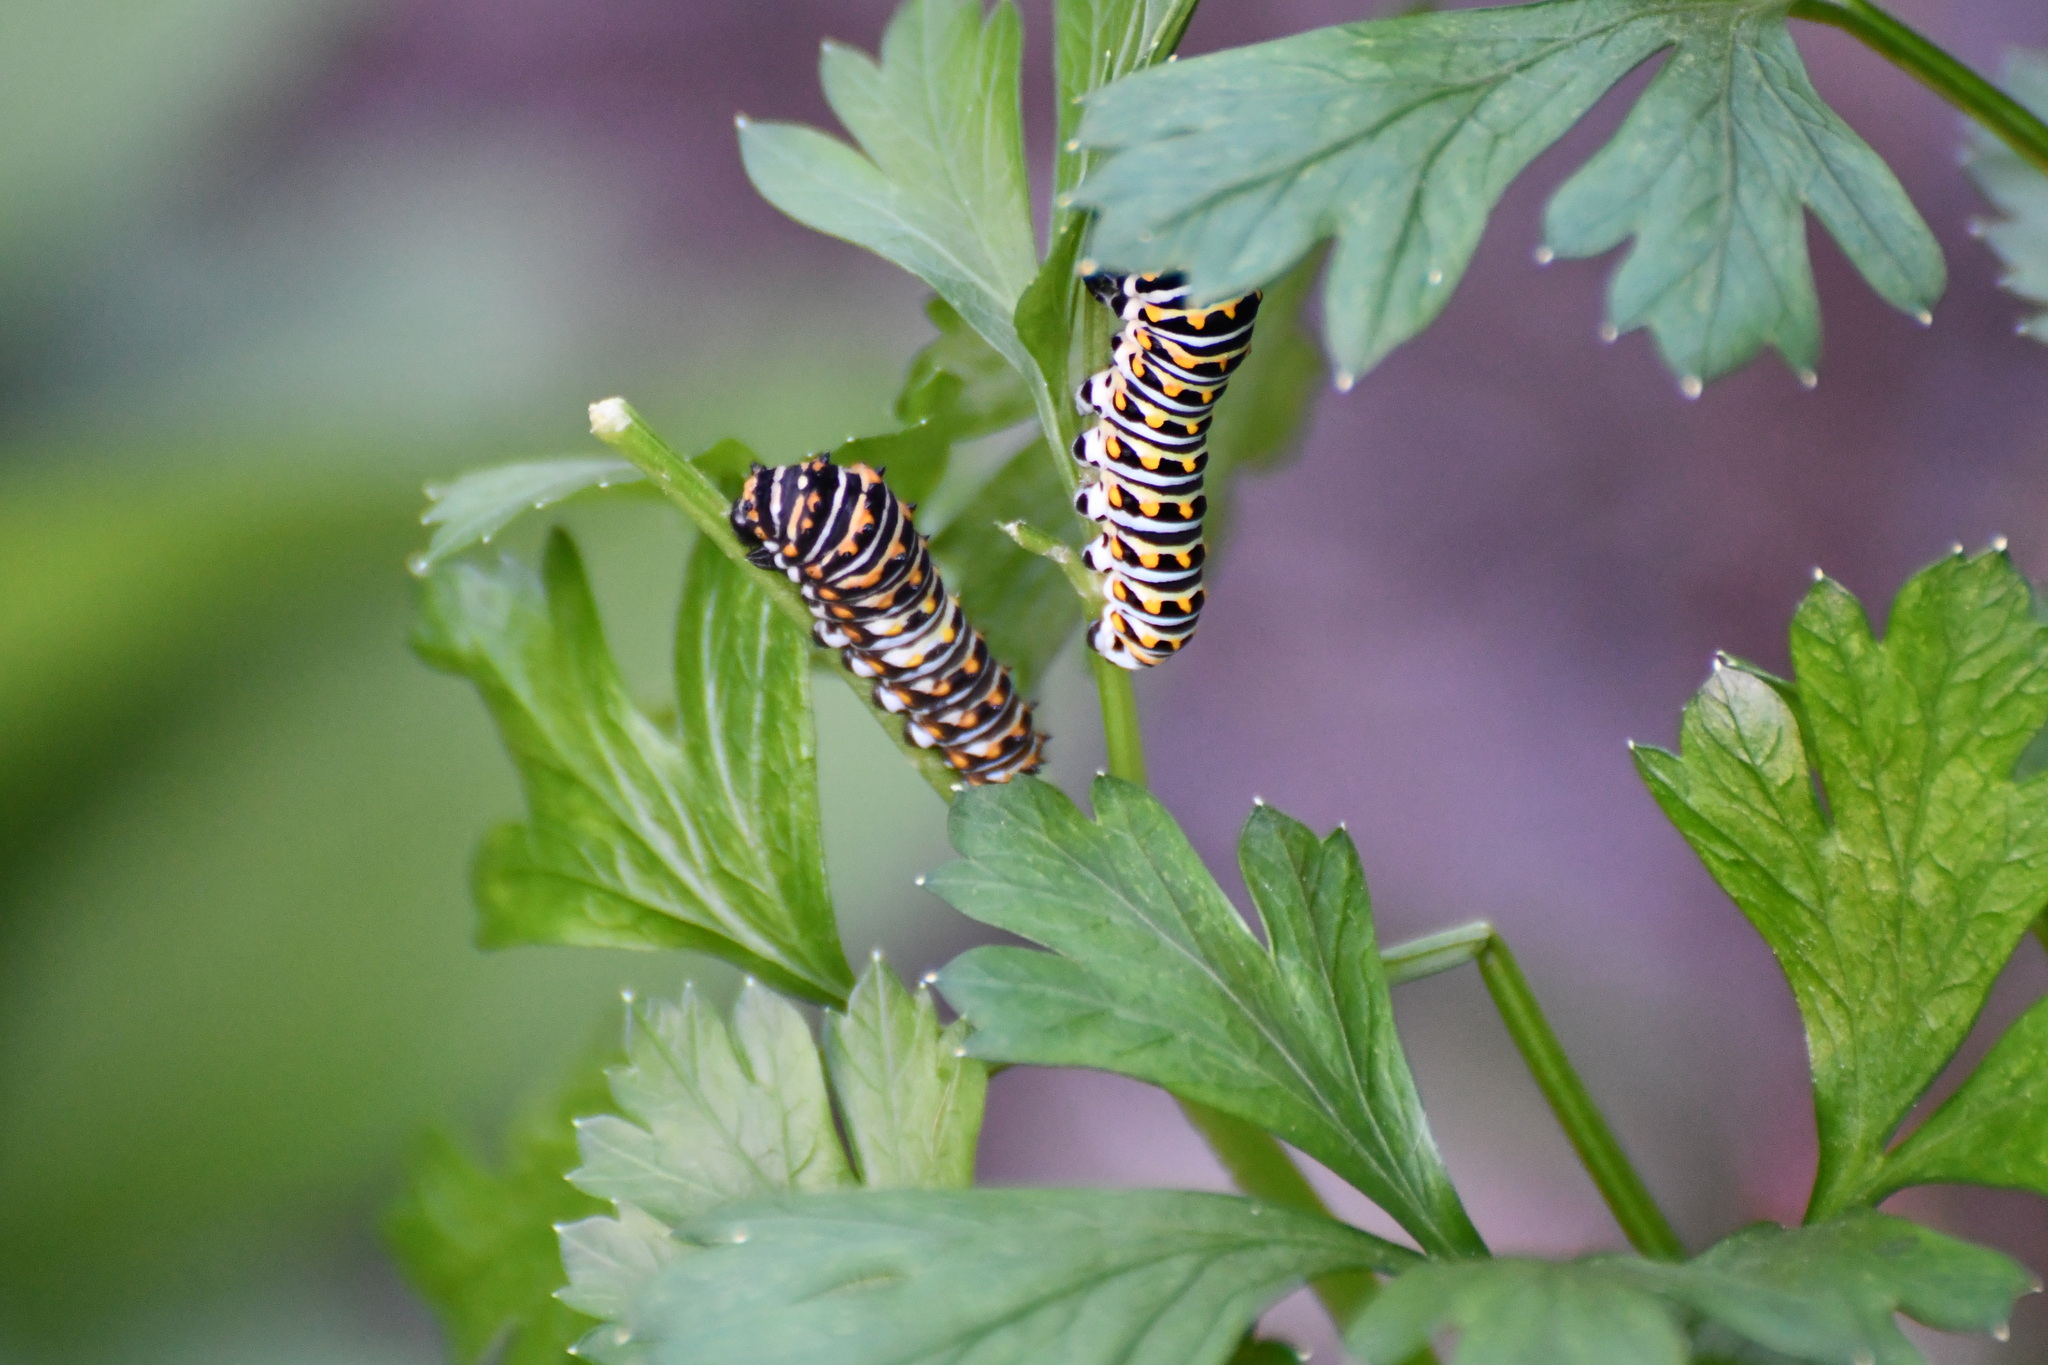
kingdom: Animalia
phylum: Arthropoda
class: Insecta
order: Lepidoptera
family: Papilionidae
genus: Papilio
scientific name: Papilio polyxenes
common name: Black swallowtail
